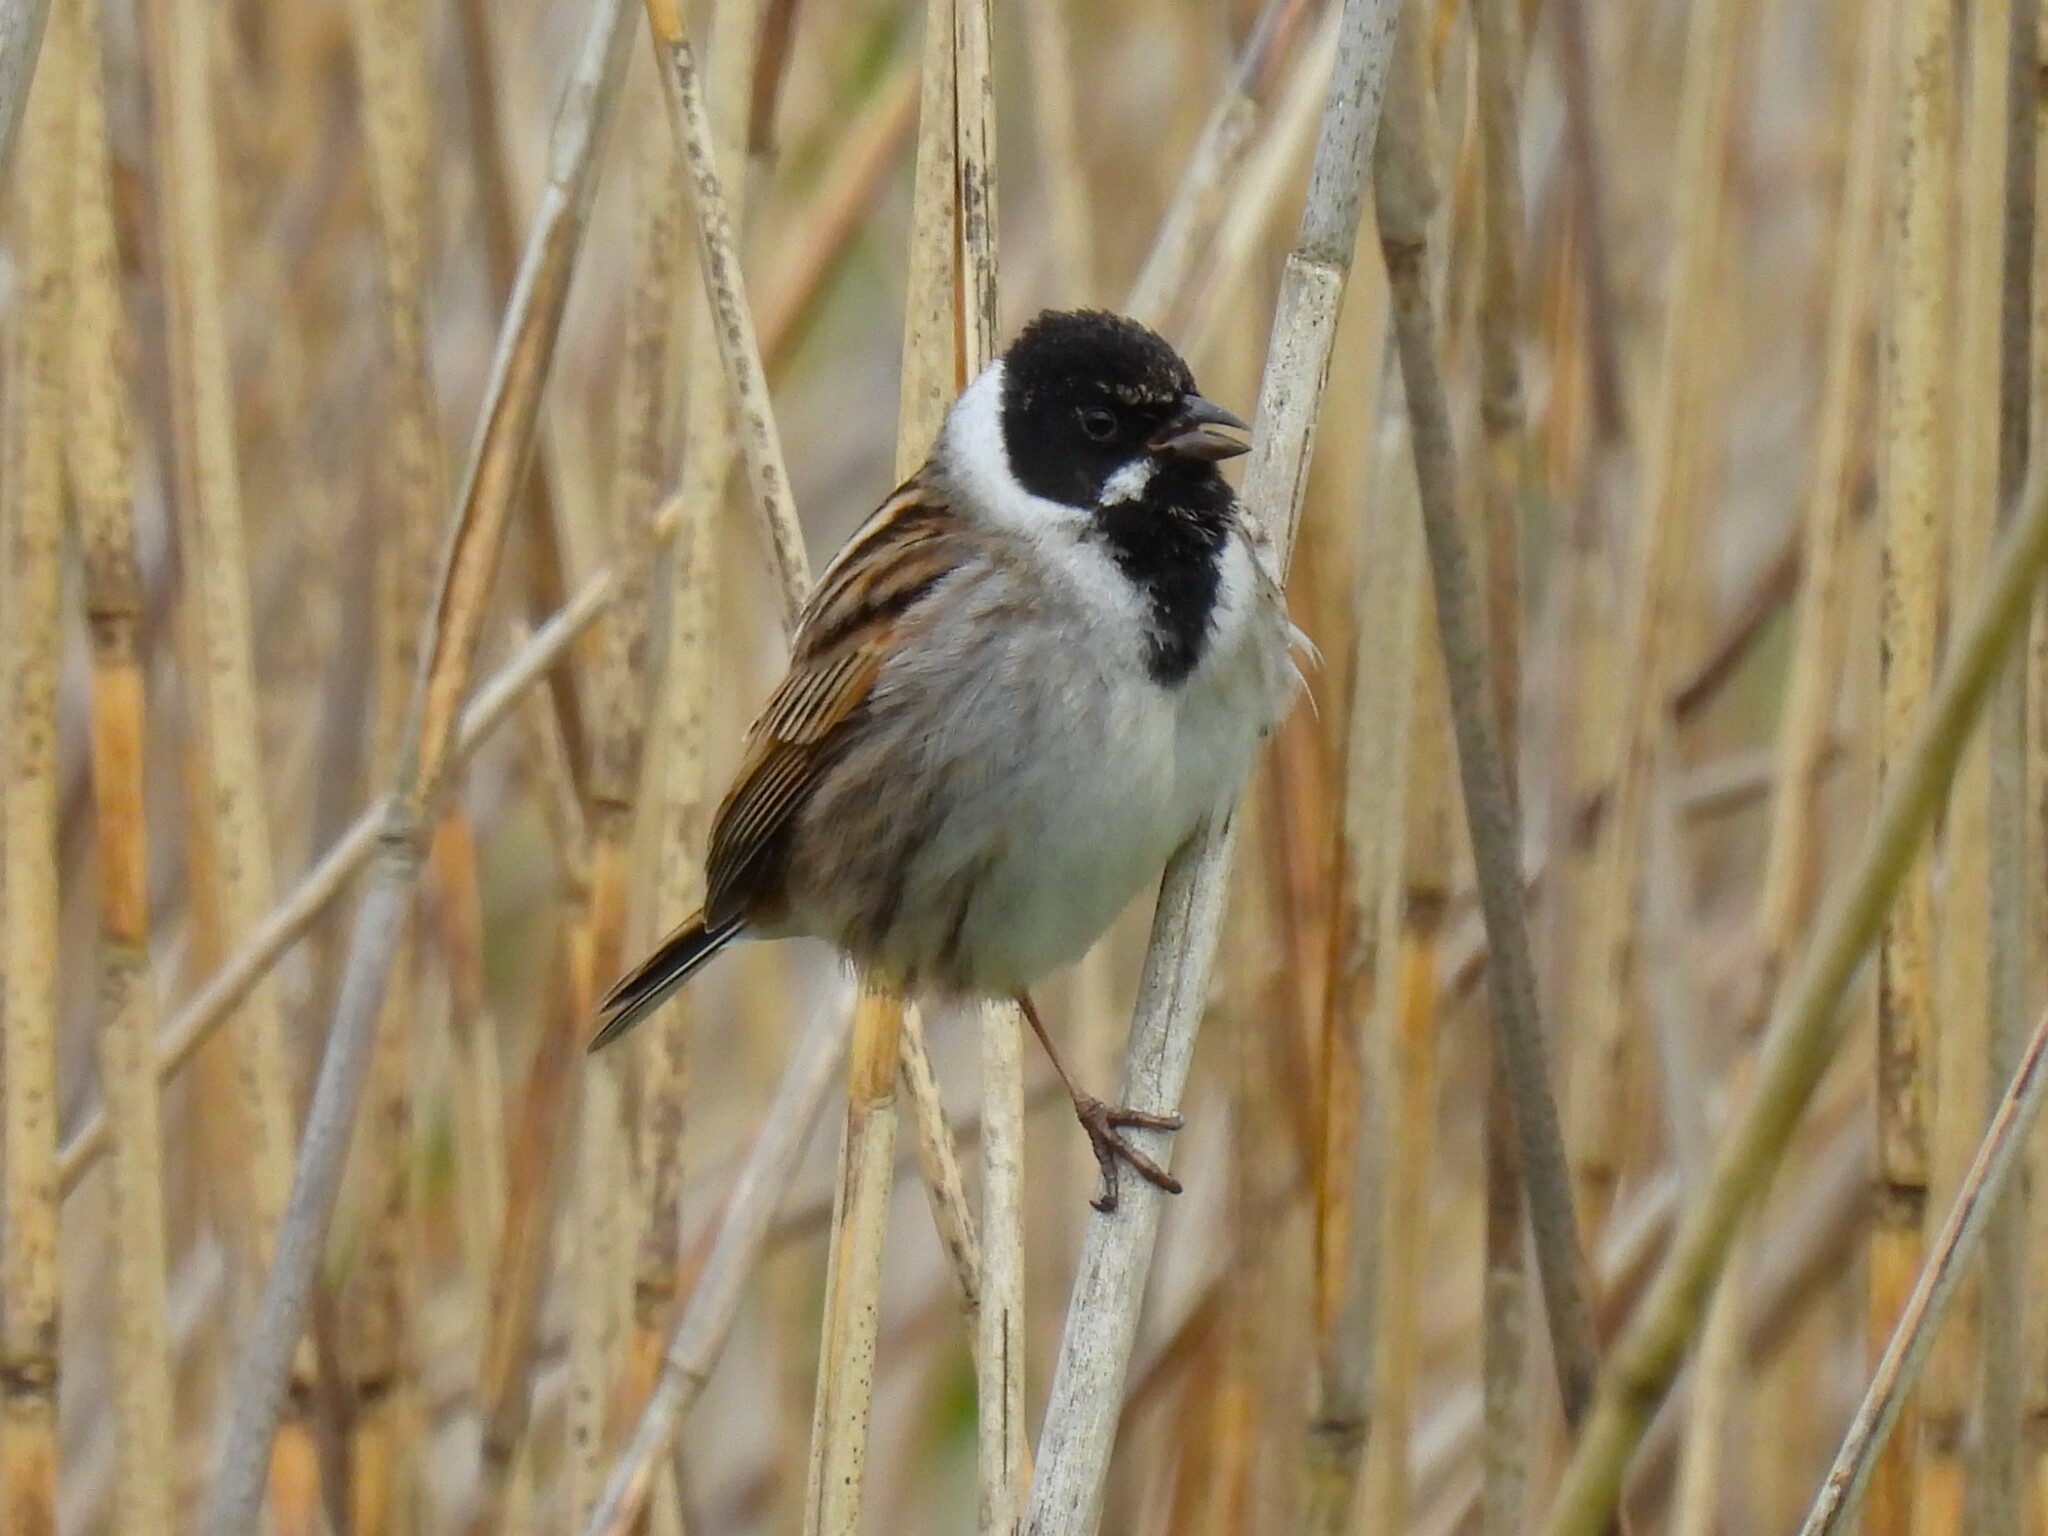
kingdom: Animalia
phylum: Chordata
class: Aves
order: Passeriformes
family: Emberizidae
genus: Emberiza
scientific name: Emberiza schoeniclus
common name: Reed bunting
